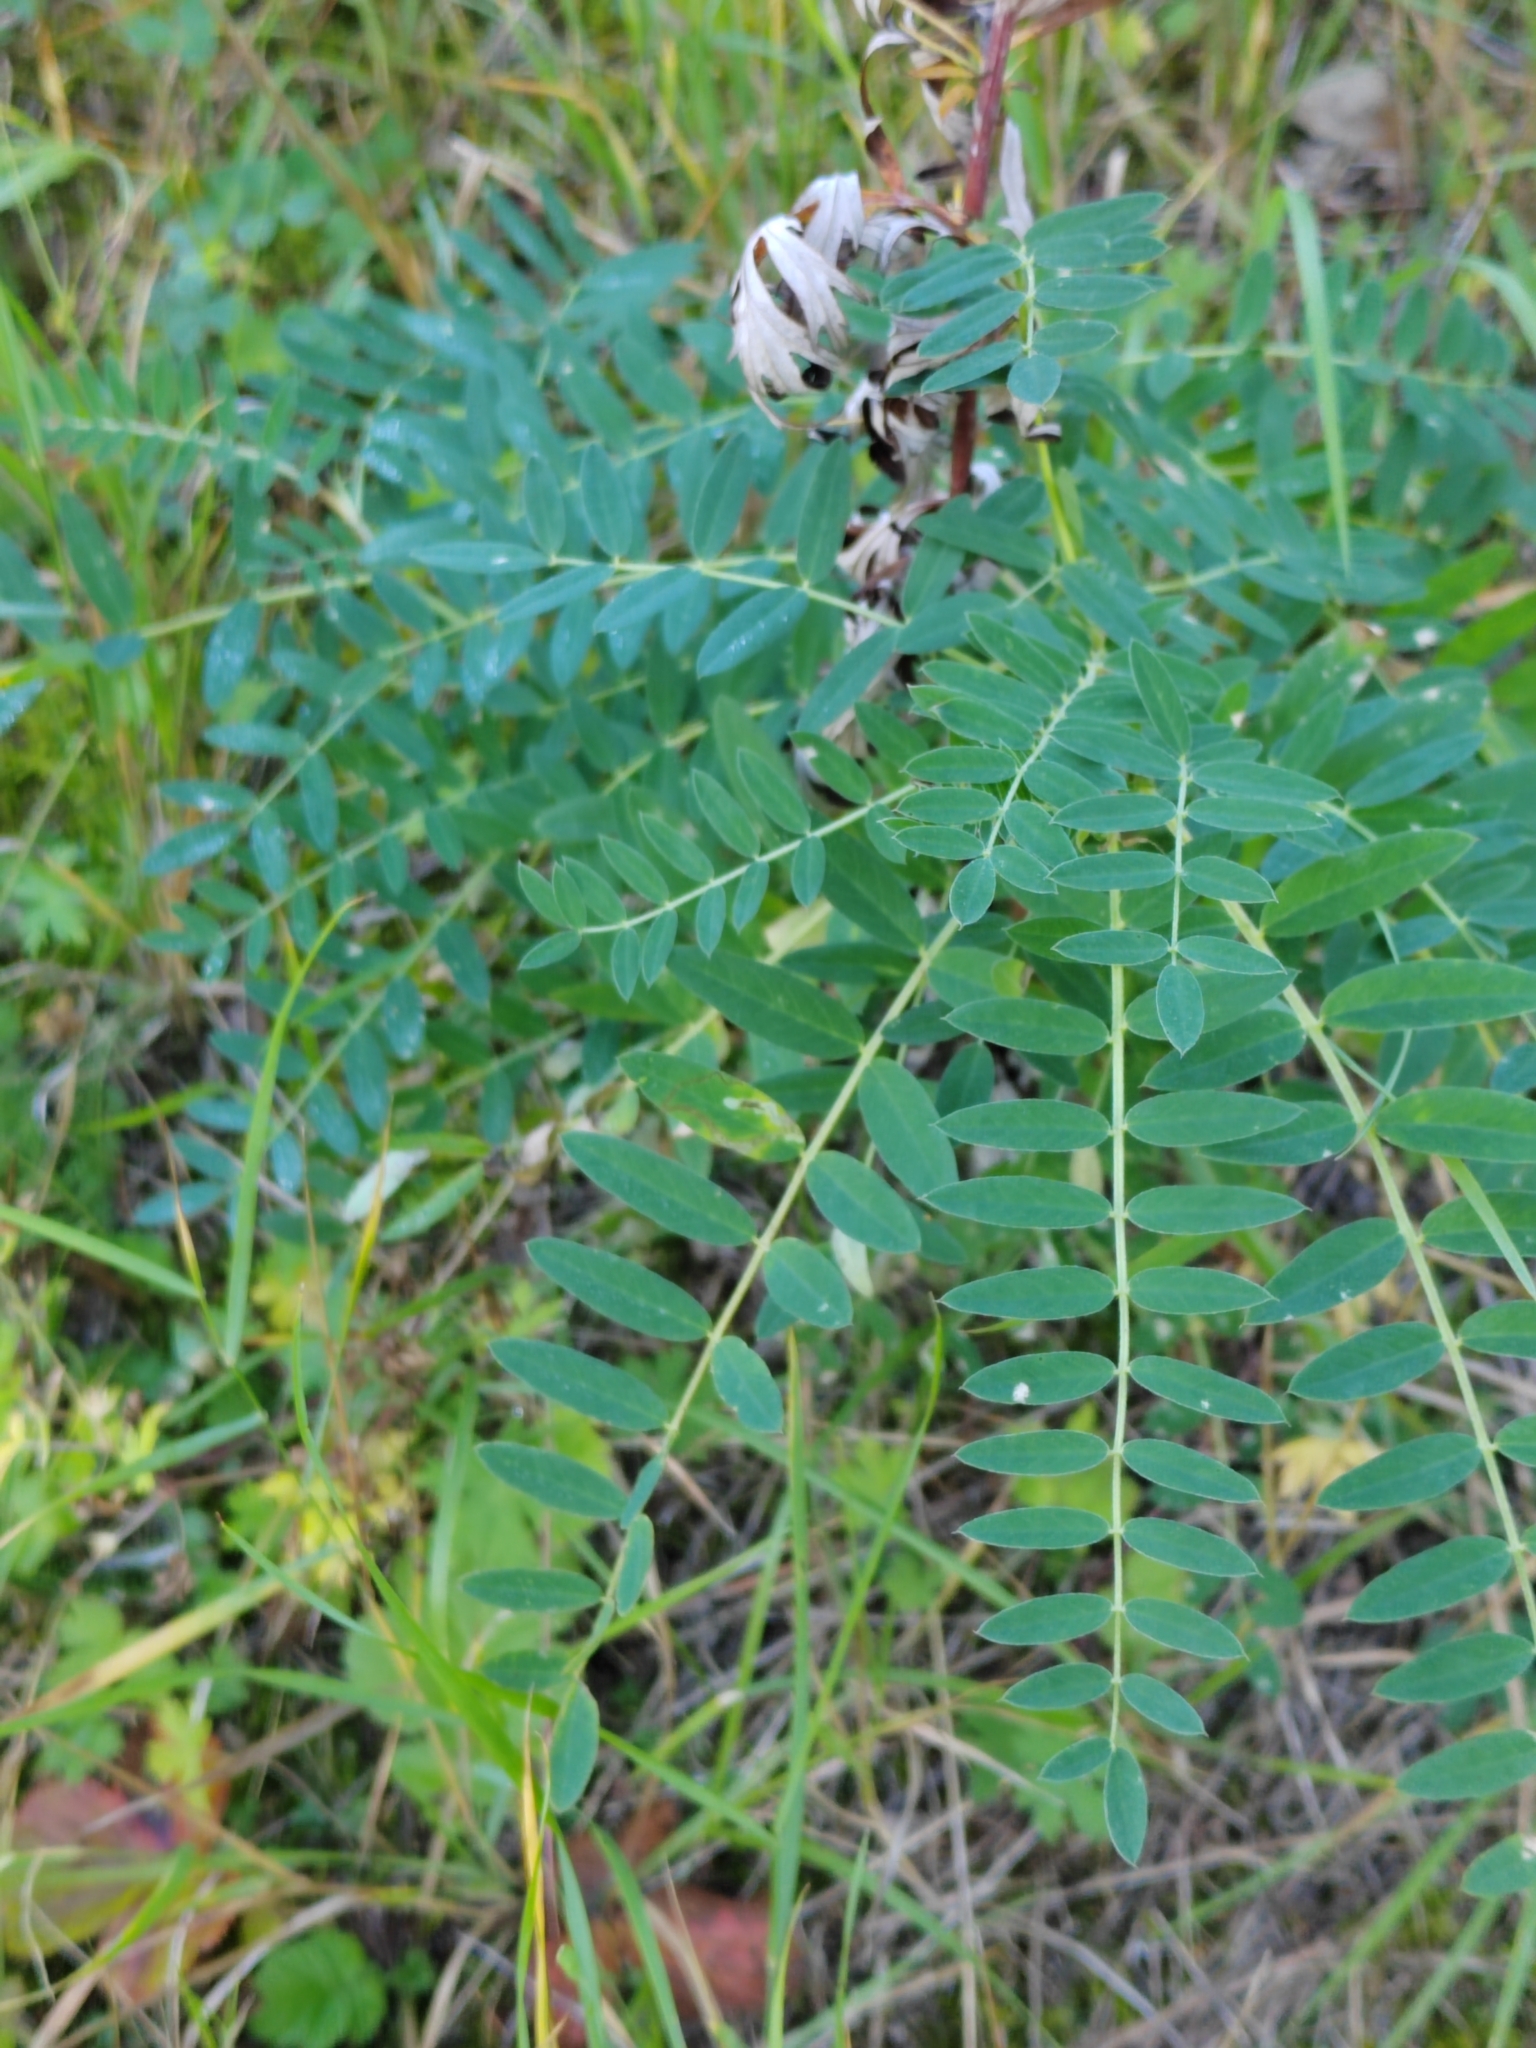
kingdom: Plantae
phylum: Tracheophyta
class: Magnoliopsida
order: Fabales
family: Fabaceae
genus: Astragalus
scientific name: Astragalus uliginosus
